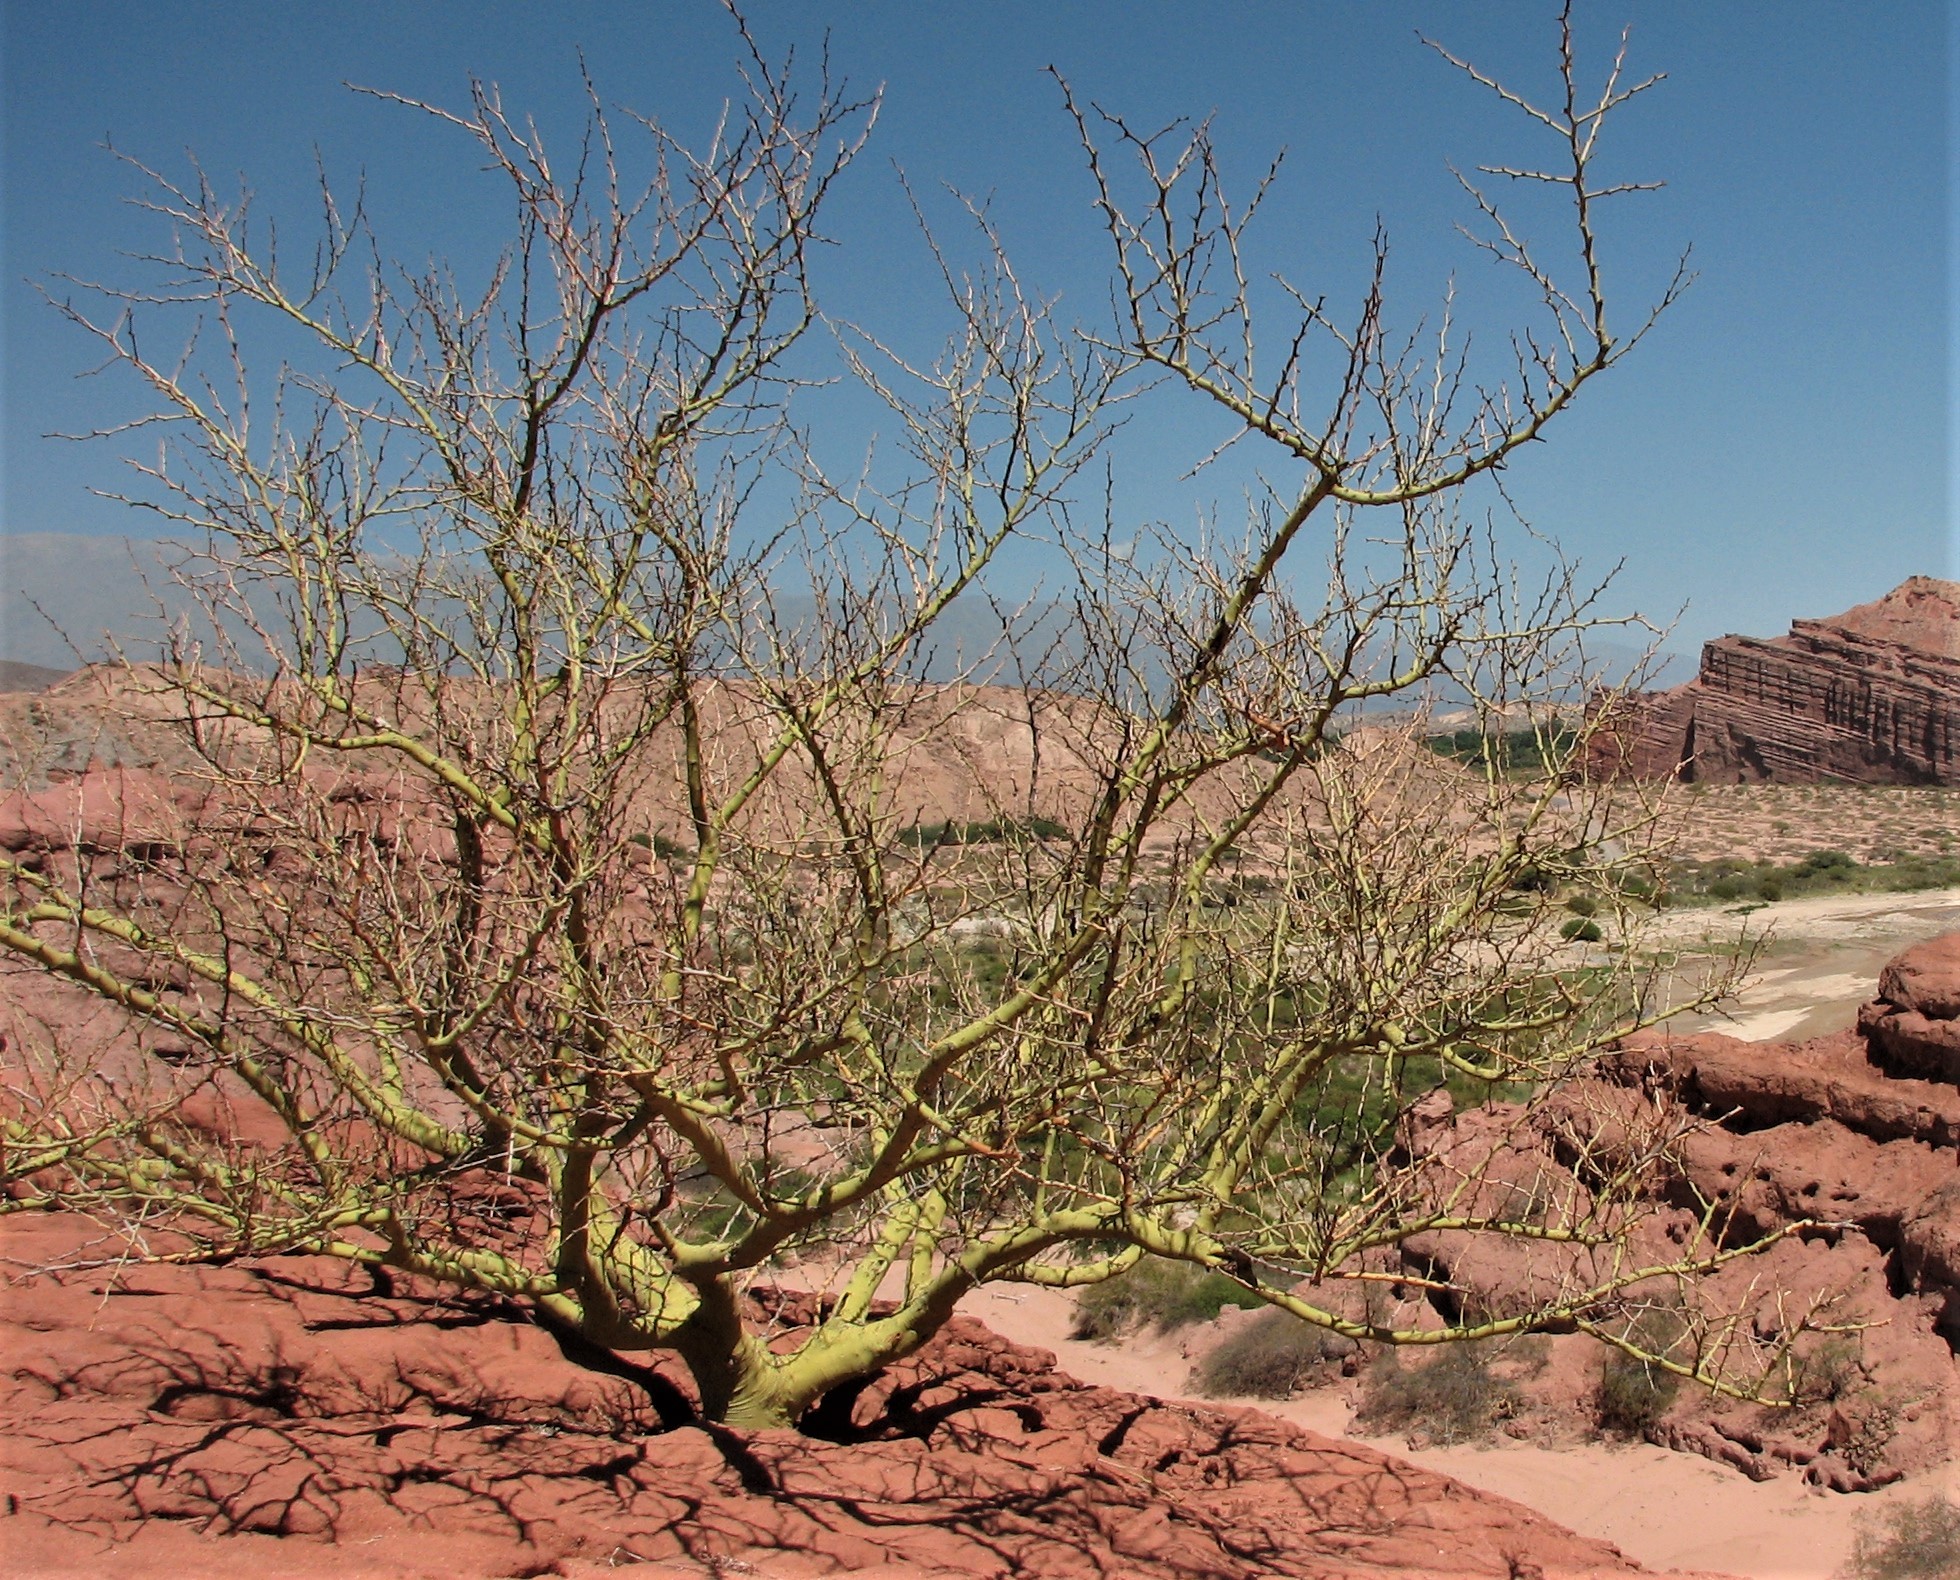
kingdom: Plantae
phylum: Tracheophyta
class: Magnoliopsida
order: Fabales
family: Fabaceae
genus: Parkinsonia
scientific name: Parkinsonia praecox
